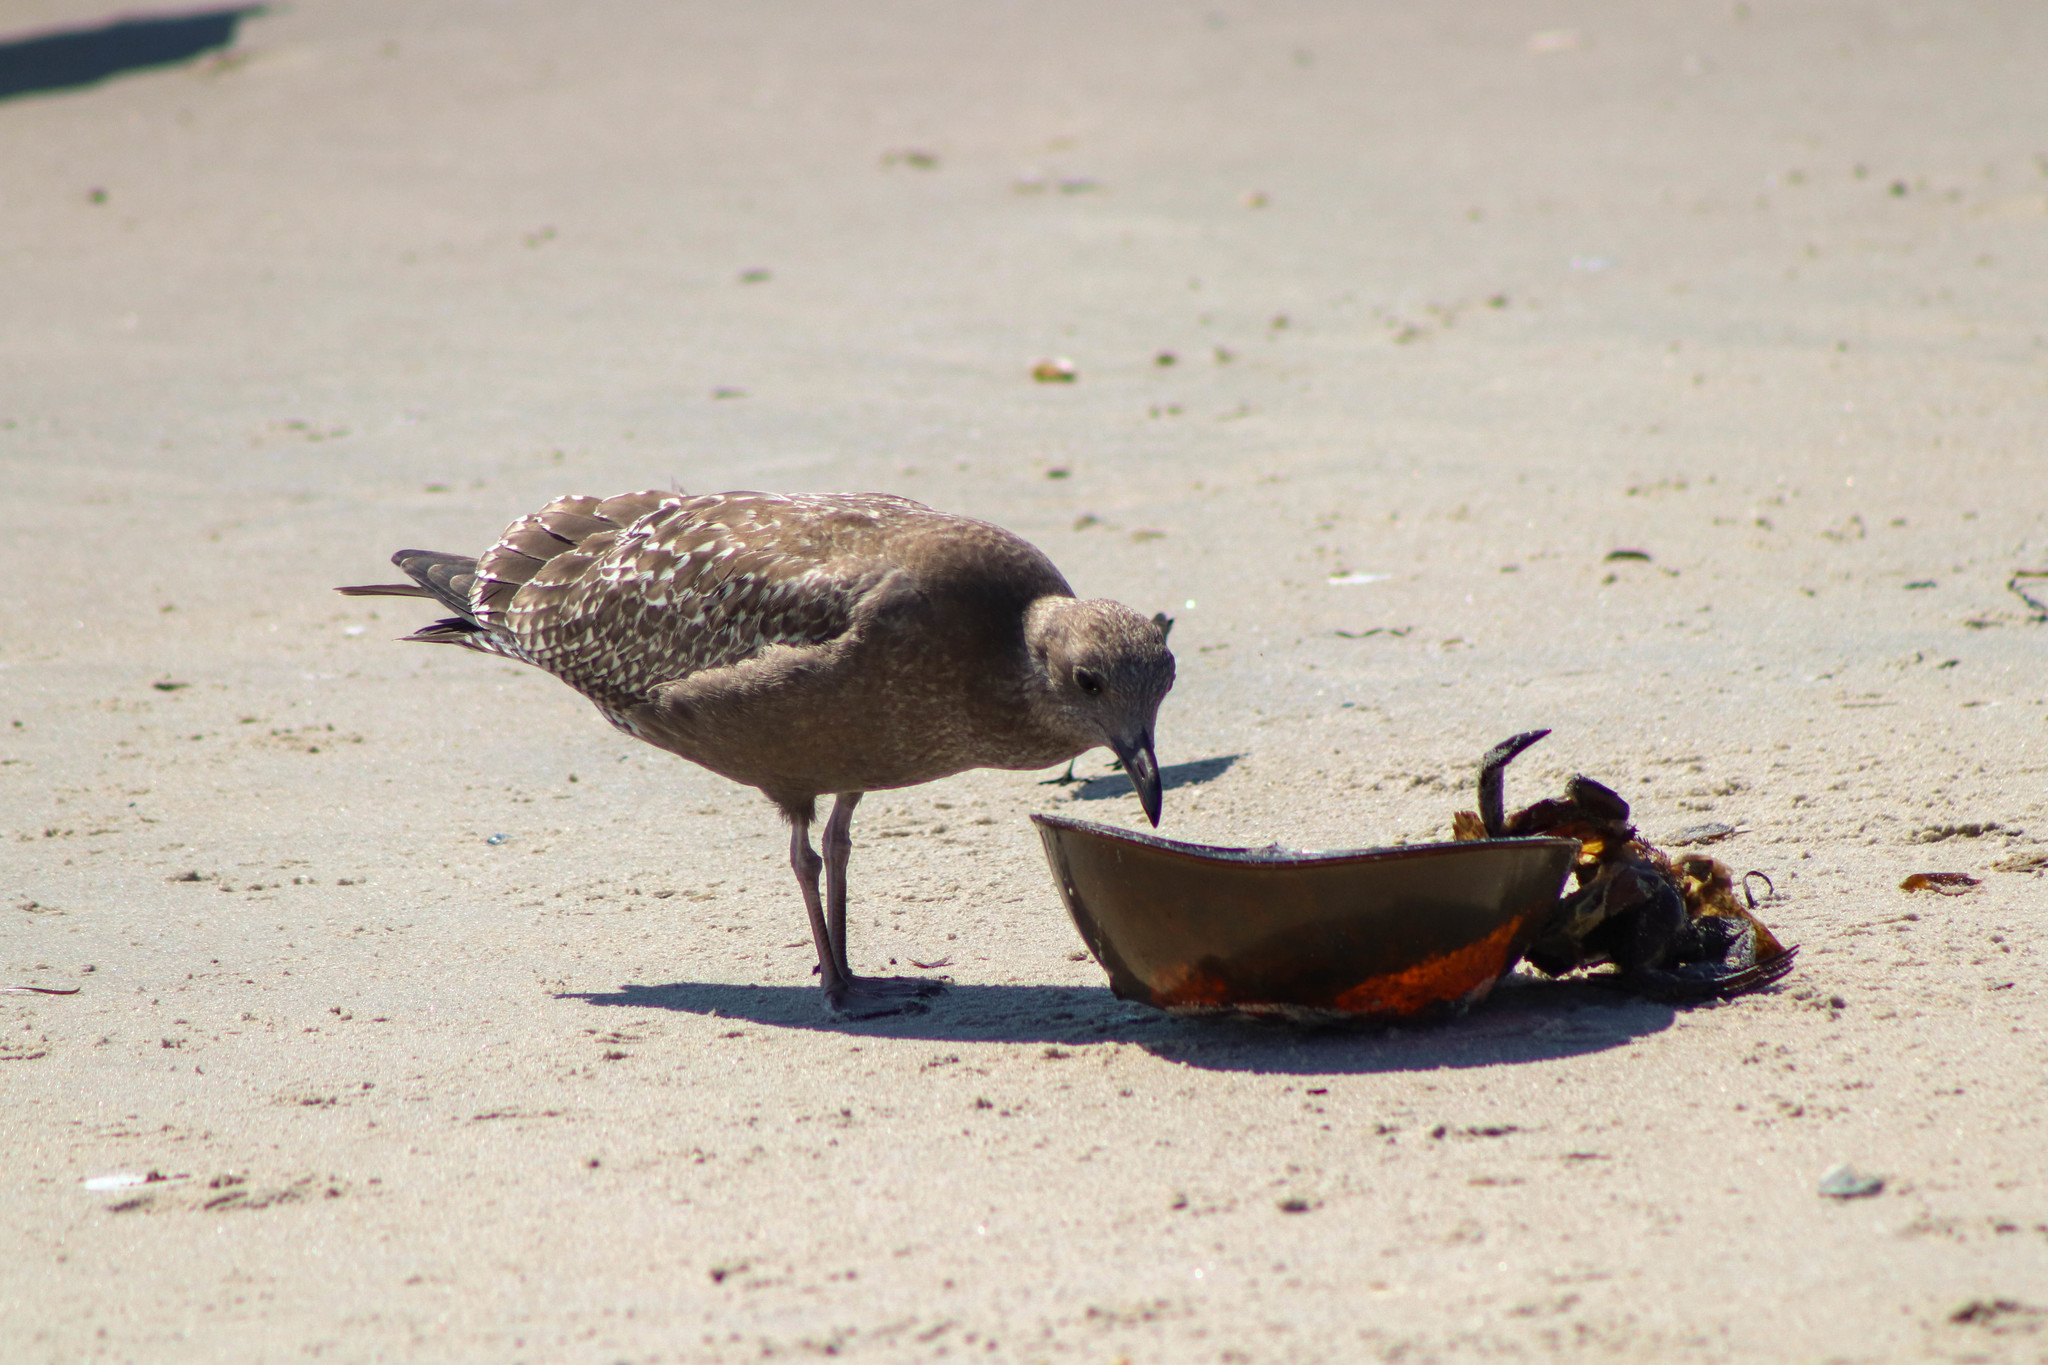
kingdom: Animalia
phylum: Chordata
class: Aves
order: Charadriiformes
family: Laridae
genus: Larus
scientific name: Larus argentatus
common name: Herring gull
